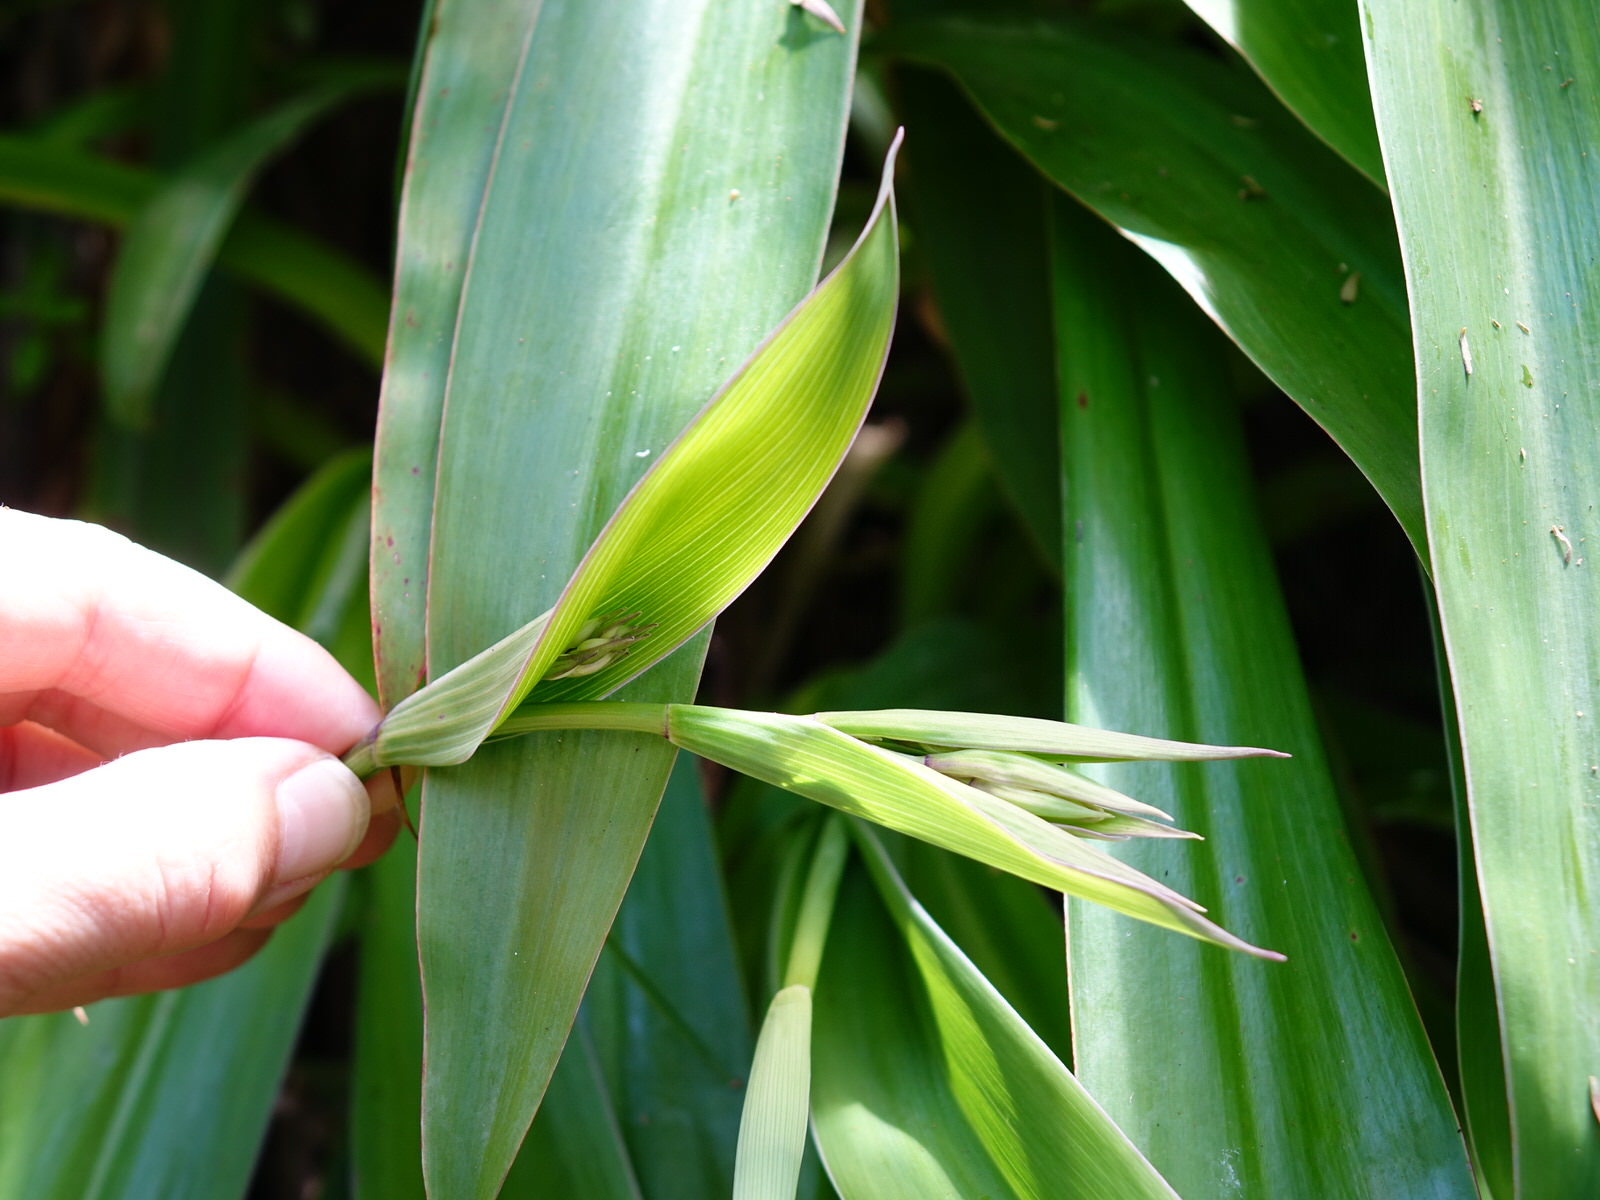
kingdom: Plantae
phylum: Tracheophyta
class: Liliopsida
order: Asparagales
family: Asparagaceae
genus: Arthropodium
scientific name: Arthropodium cirratum
